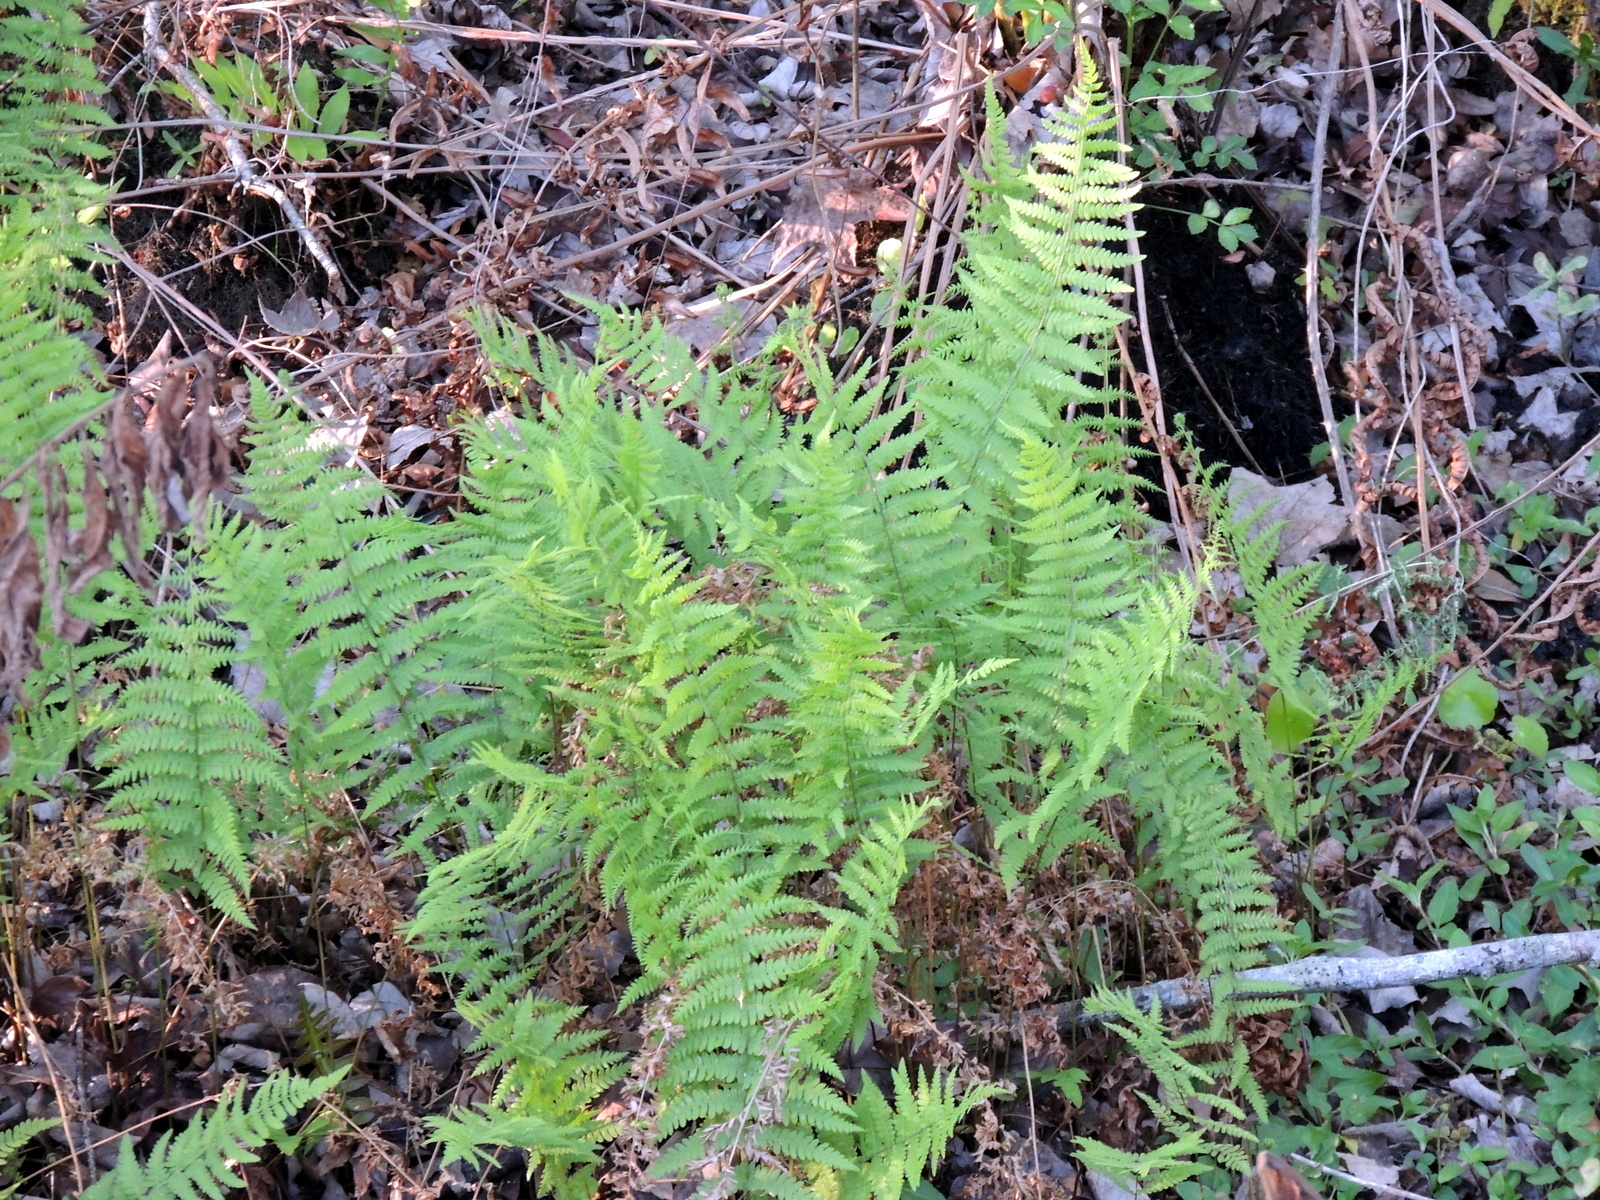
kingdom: Plantae
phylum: Tracheophyta
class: Polypodiopsida
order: Osmundales
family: Osmundaceae
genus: Osmundastrum
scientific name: Osmundastrum cinnamomeum
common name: Cinnamon fern
